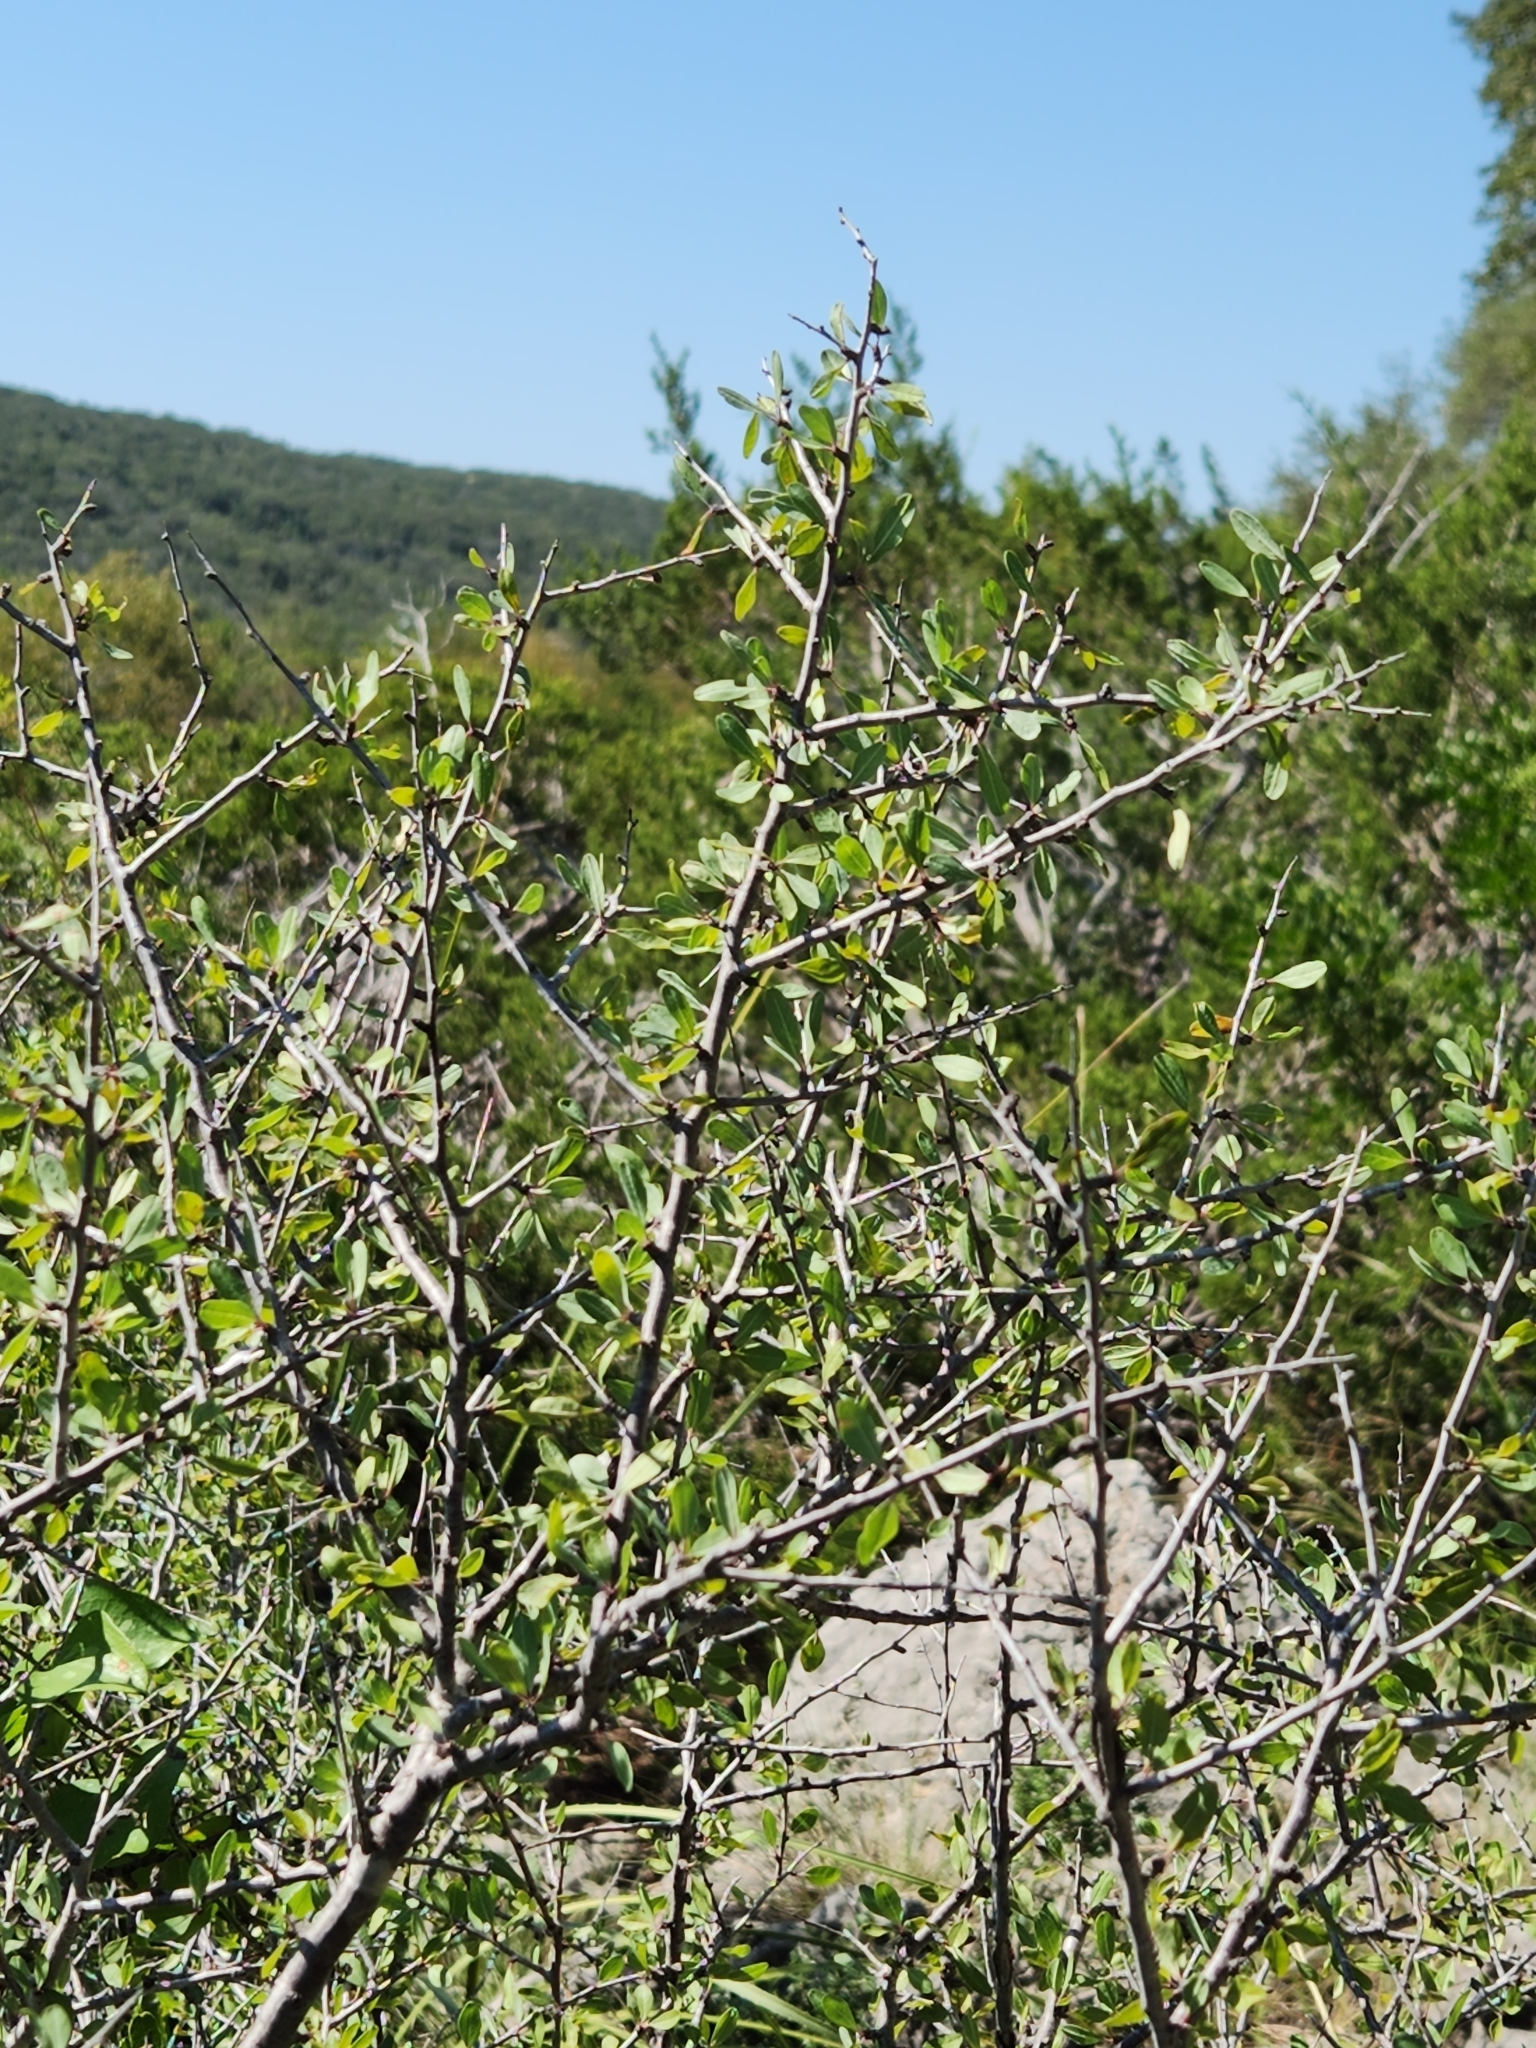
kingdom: Plantae
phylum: Tracheophyta
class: Magnoliopsida
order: Rosales
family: Rosaceae
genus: Prunus
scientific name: Prunus minutiflora
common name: Texas almond
